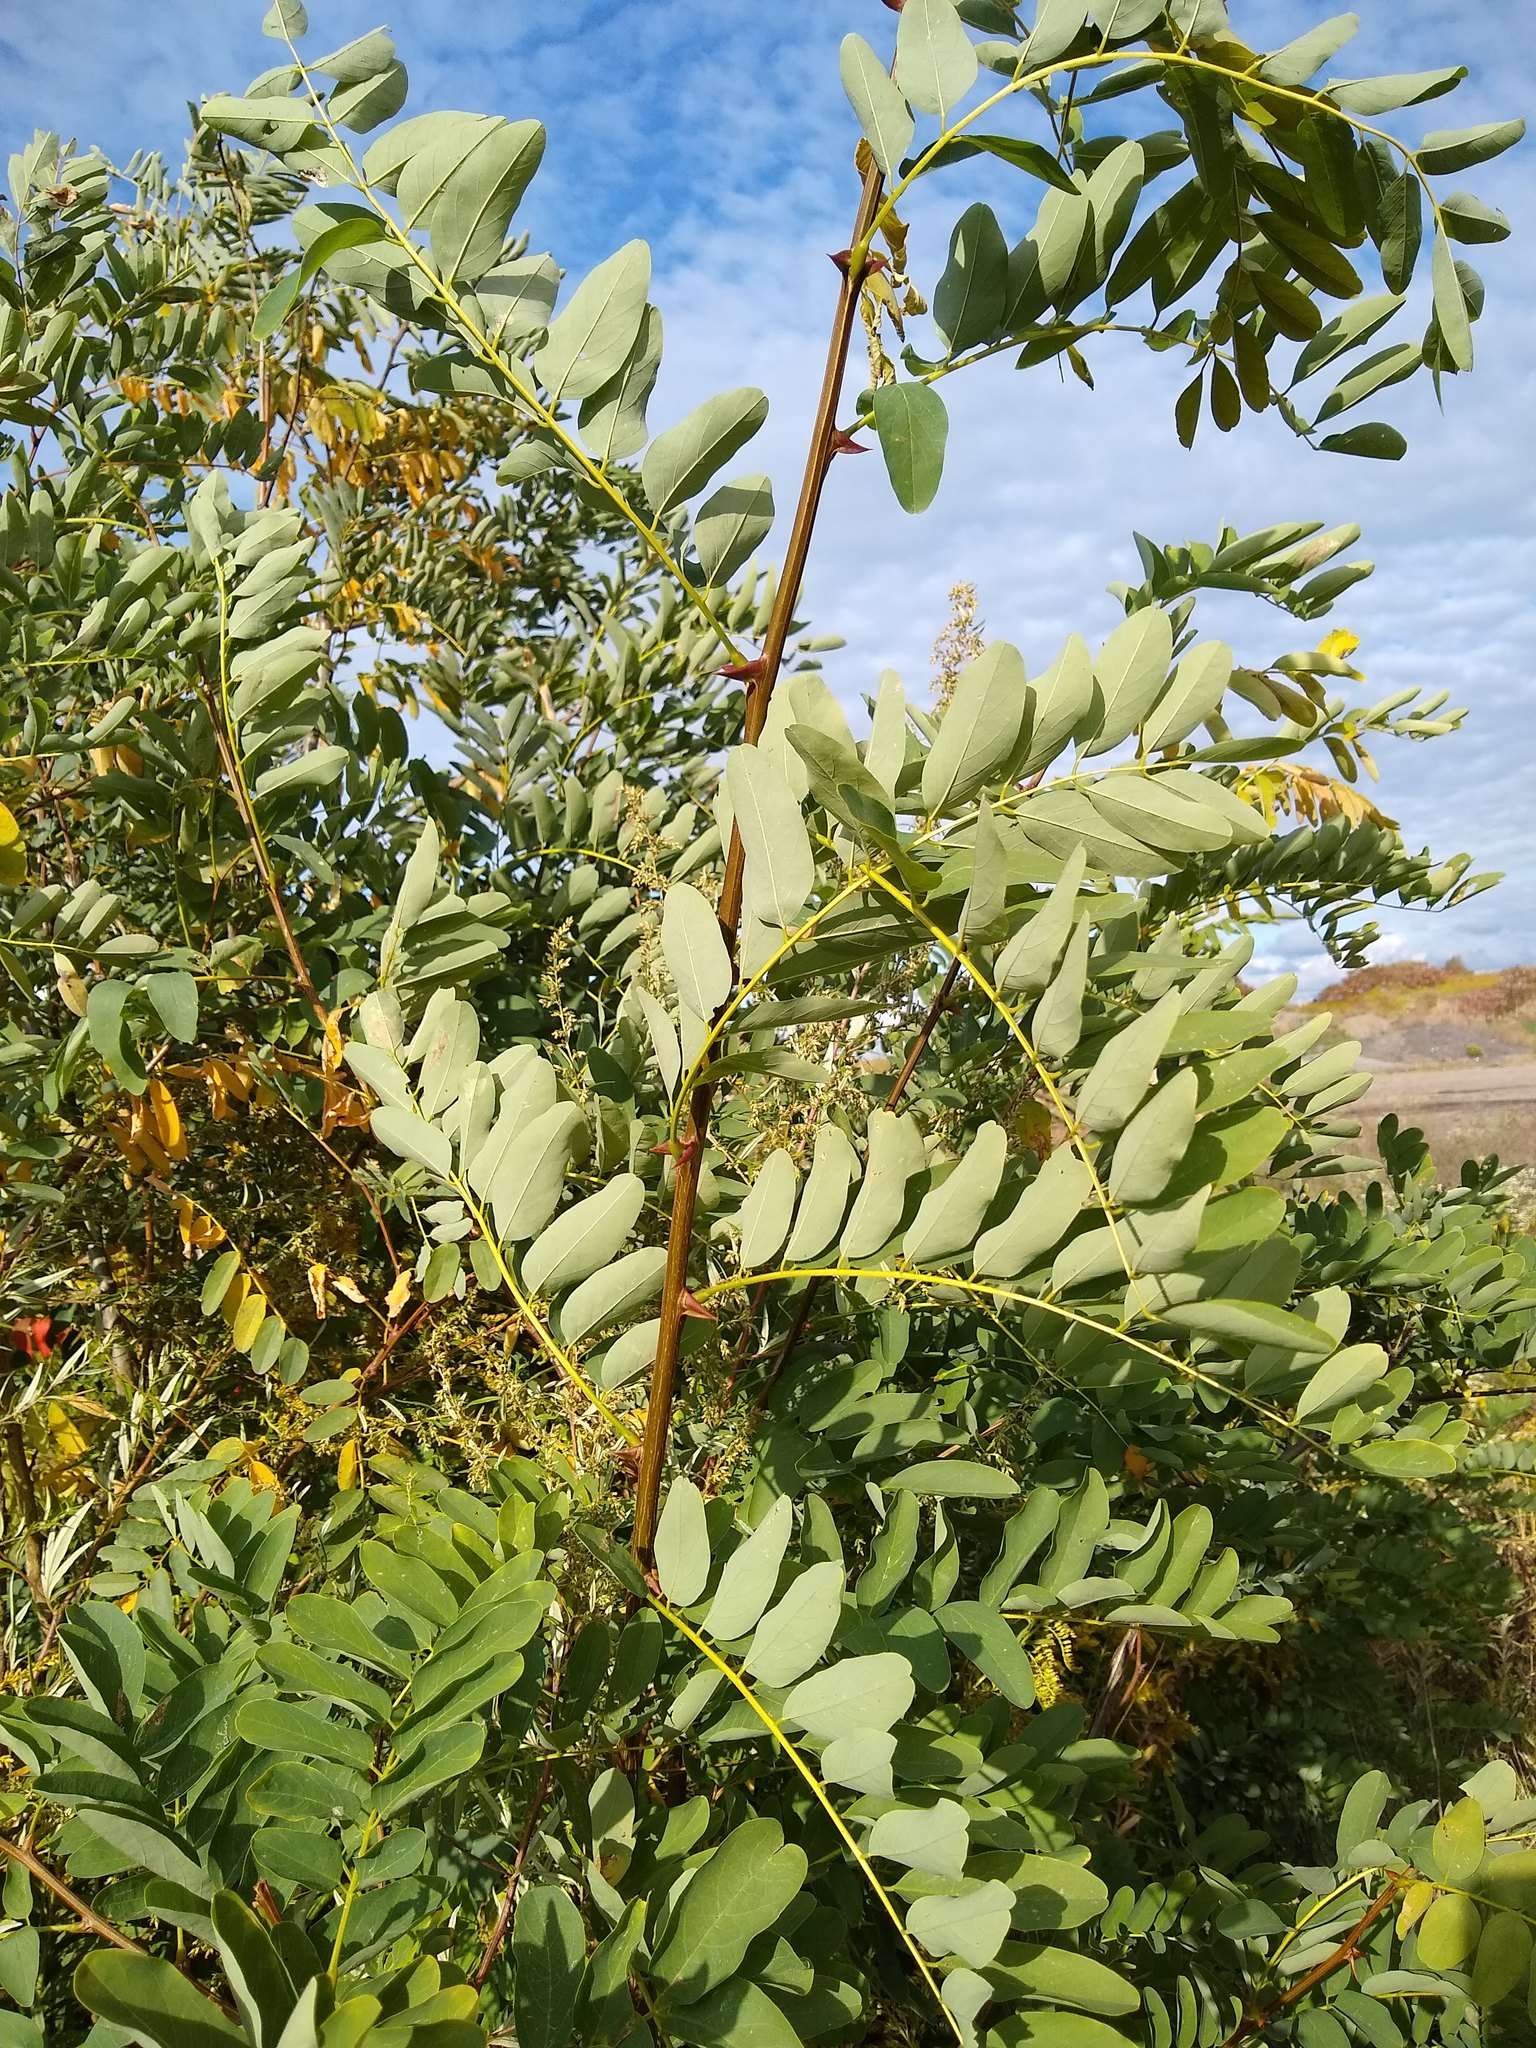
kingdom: Plantae
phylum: Tracheophyta
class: Magnoliopsida
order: Fabales
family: Fabaceae
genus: Robinia
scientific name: Robinia pseudoacacia
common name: Black locust
